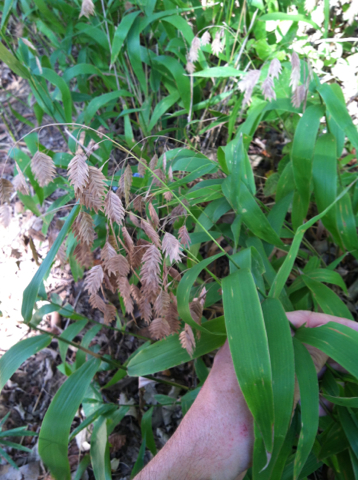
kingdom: Plantae
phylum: Tracheophyta
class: Liliopsida
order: Poales
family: Poaceae
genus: Chasmanthium
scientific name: Chasmanthium latifolium
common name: Broad-leaved chasmanthium
